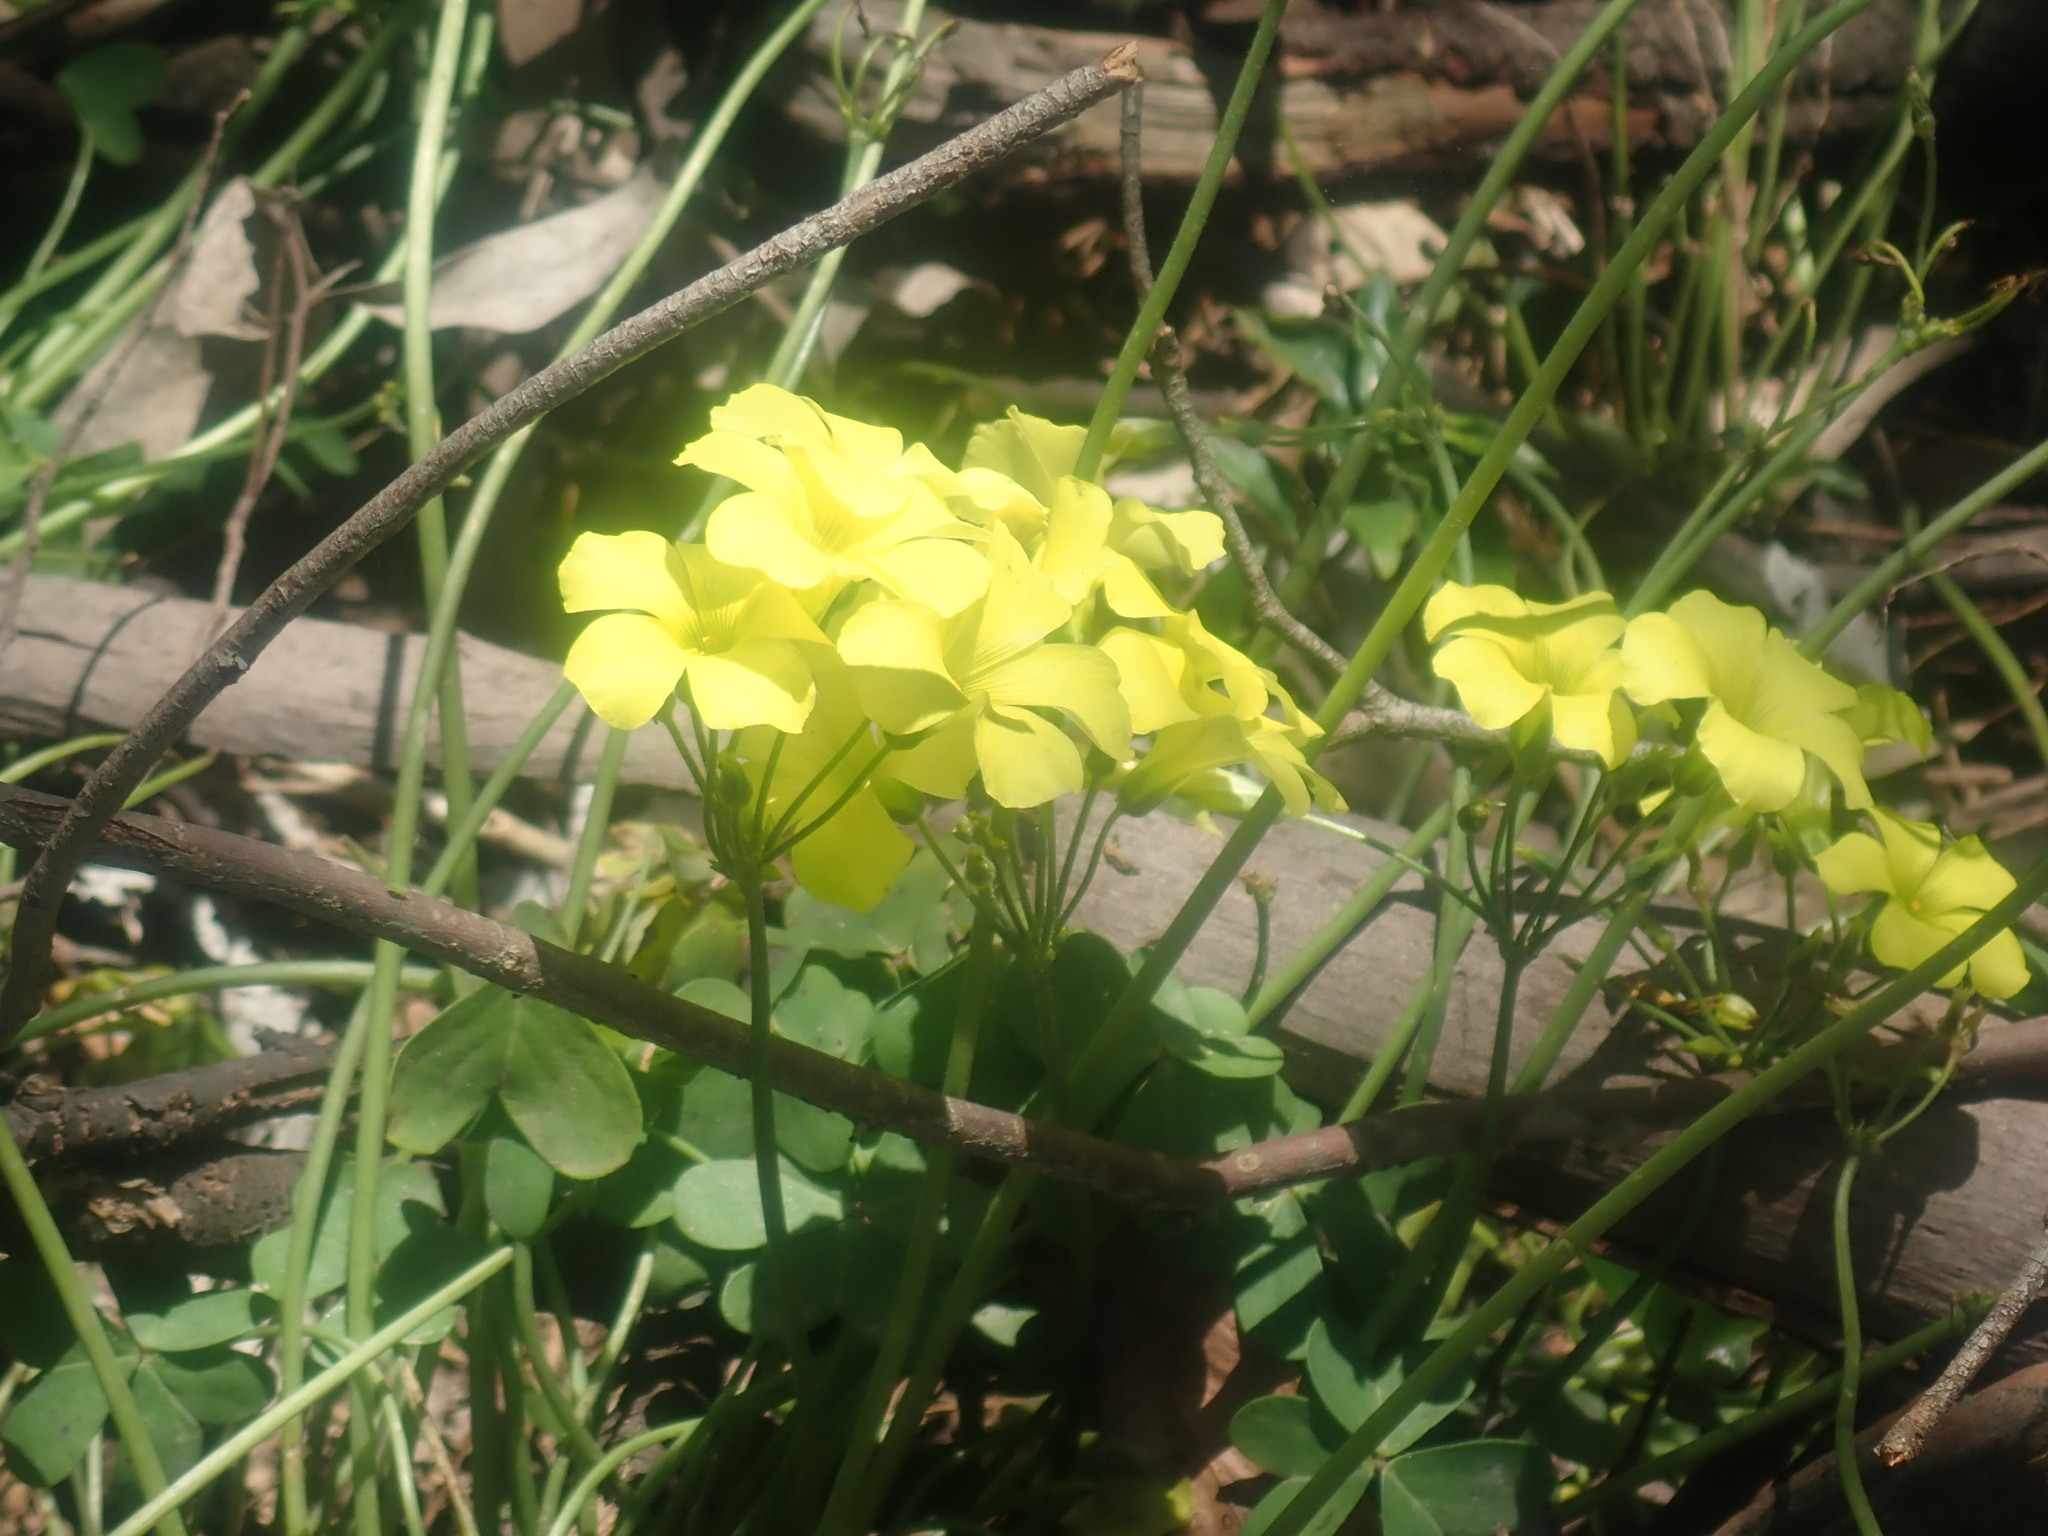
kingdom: Plantae
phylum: Tracheophyta
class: Magnoliopsida
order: Oxalidales
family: Oxalidaceae
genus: Oxalis
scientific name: Oxalis pes-caprae
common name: Bermuda-buttercup
